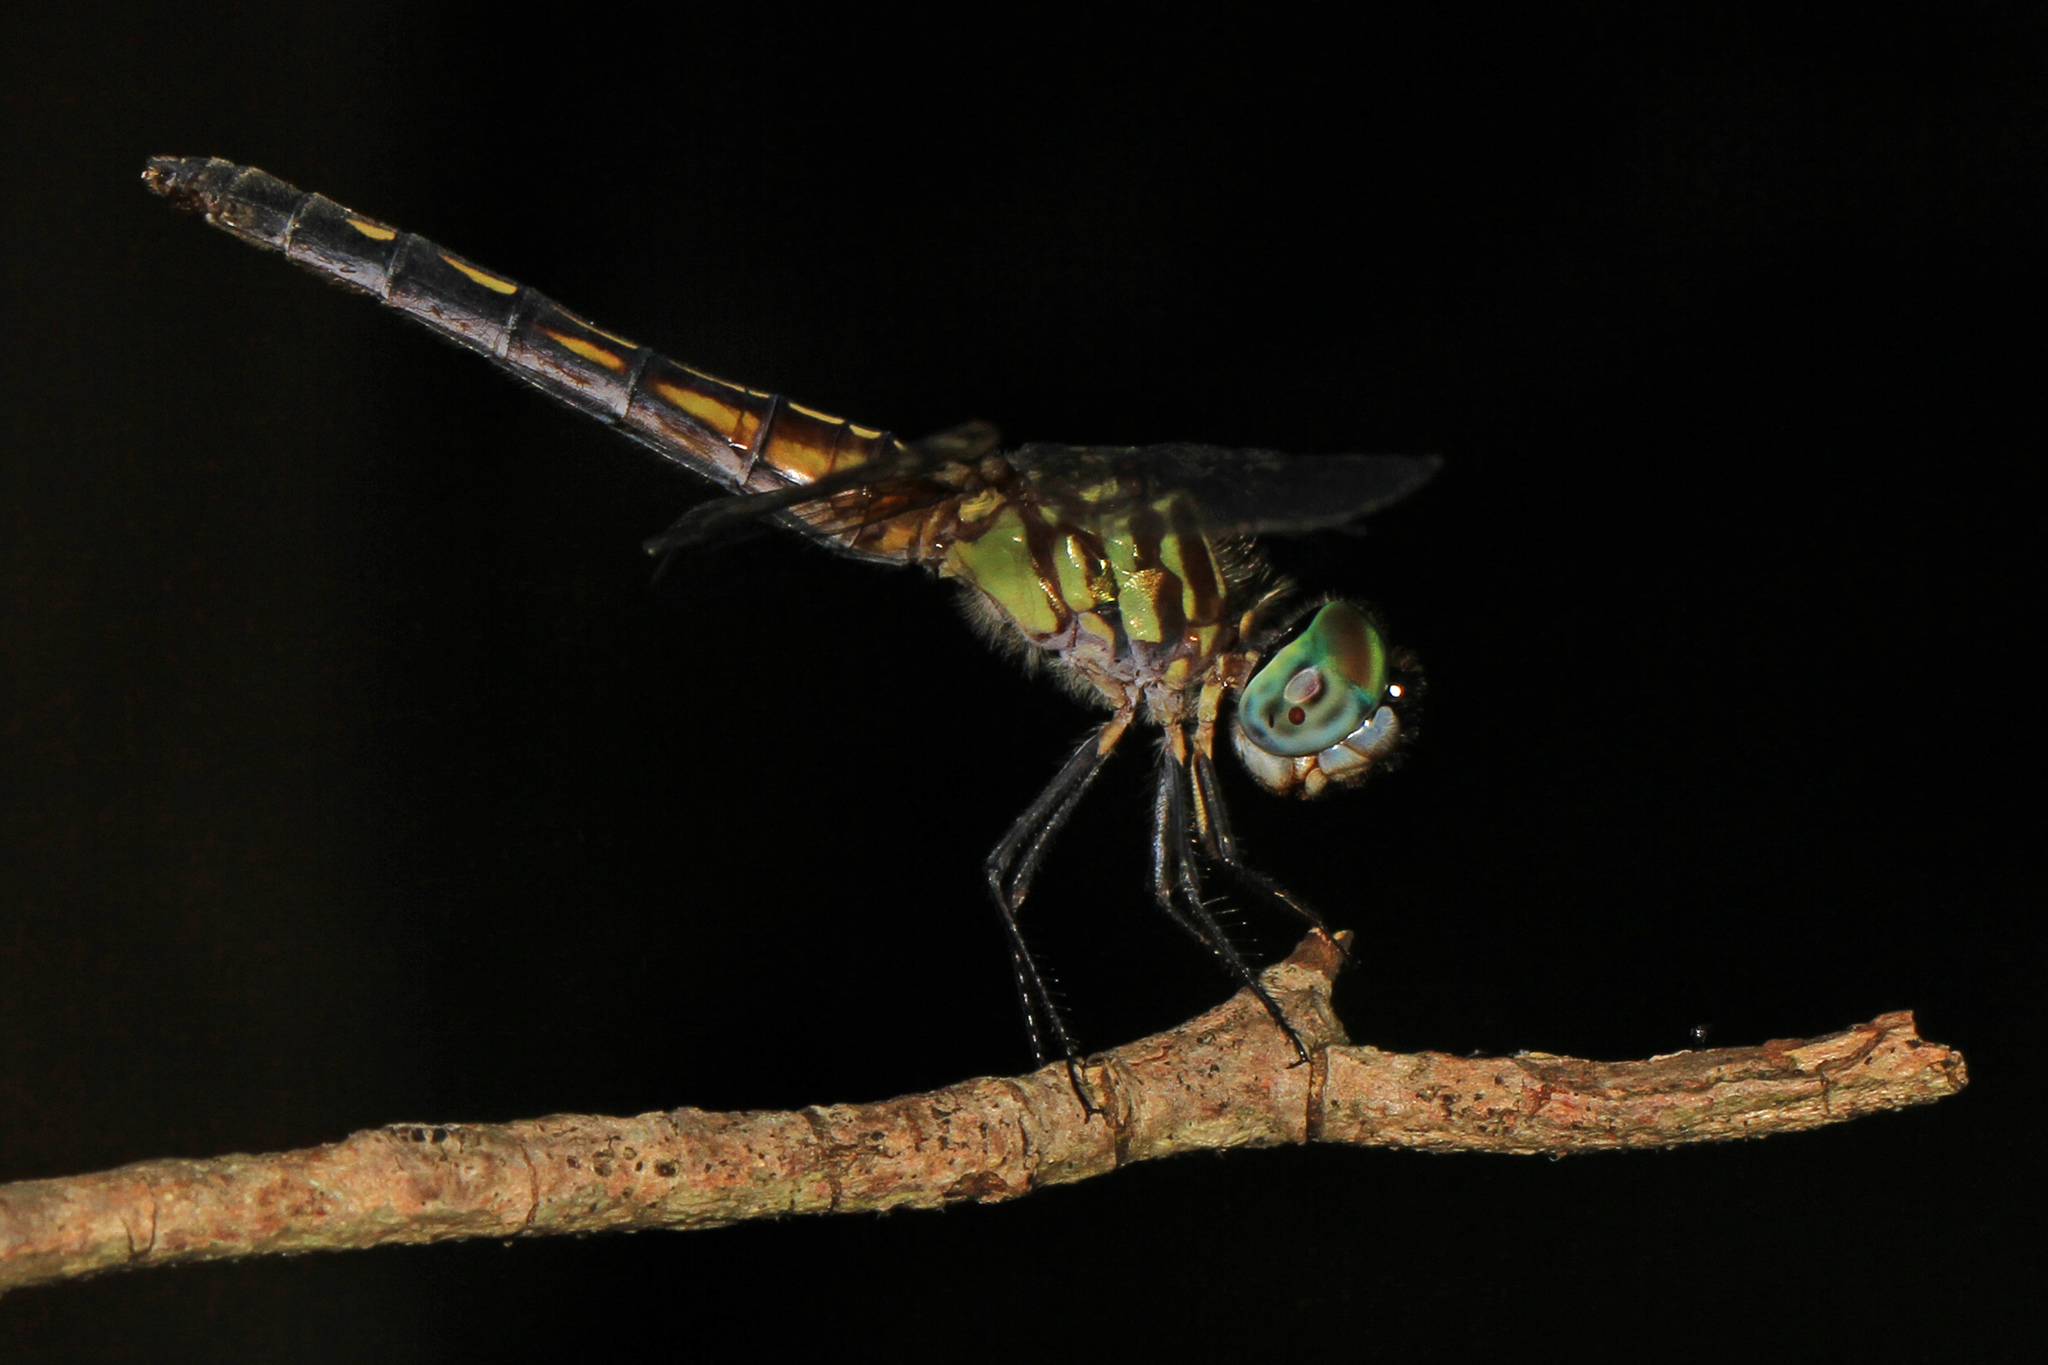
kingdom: Animalia
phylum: Arthropoda
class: Insecta
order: Odonata
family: Libellulidae
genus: Pachydiplax
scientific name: Pachydiplax longipennis
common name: Blue dasher
